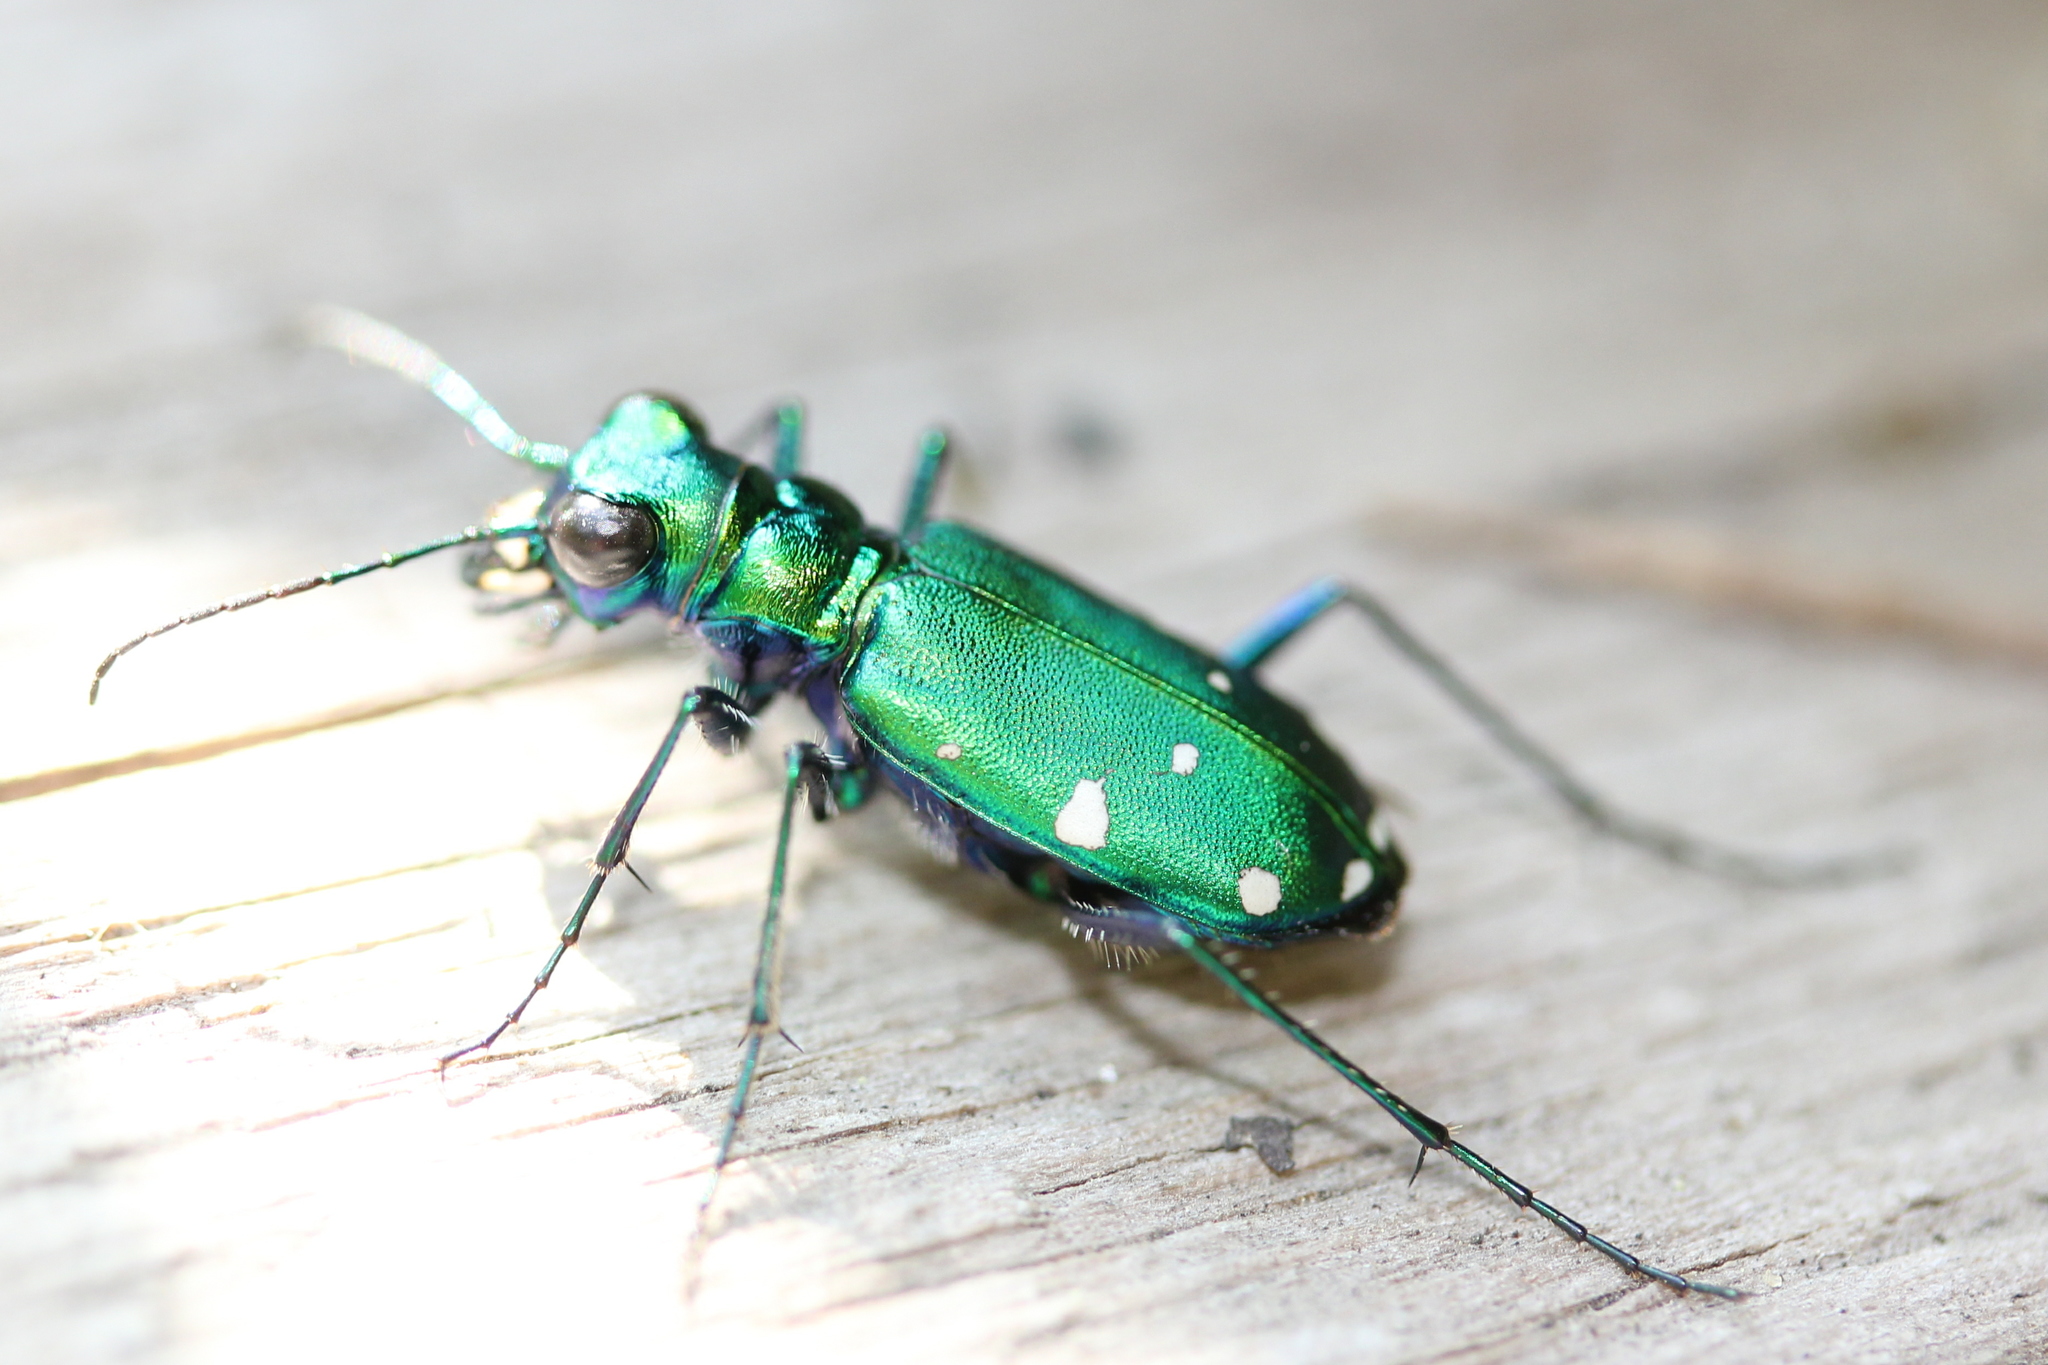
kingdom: Animalia
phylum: Arthropoda
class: Insecta
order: Coleoptera
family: Carabidae
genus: Cicindela
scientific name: Cicindela sexguttata
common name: Six-spotted tiger beetle
